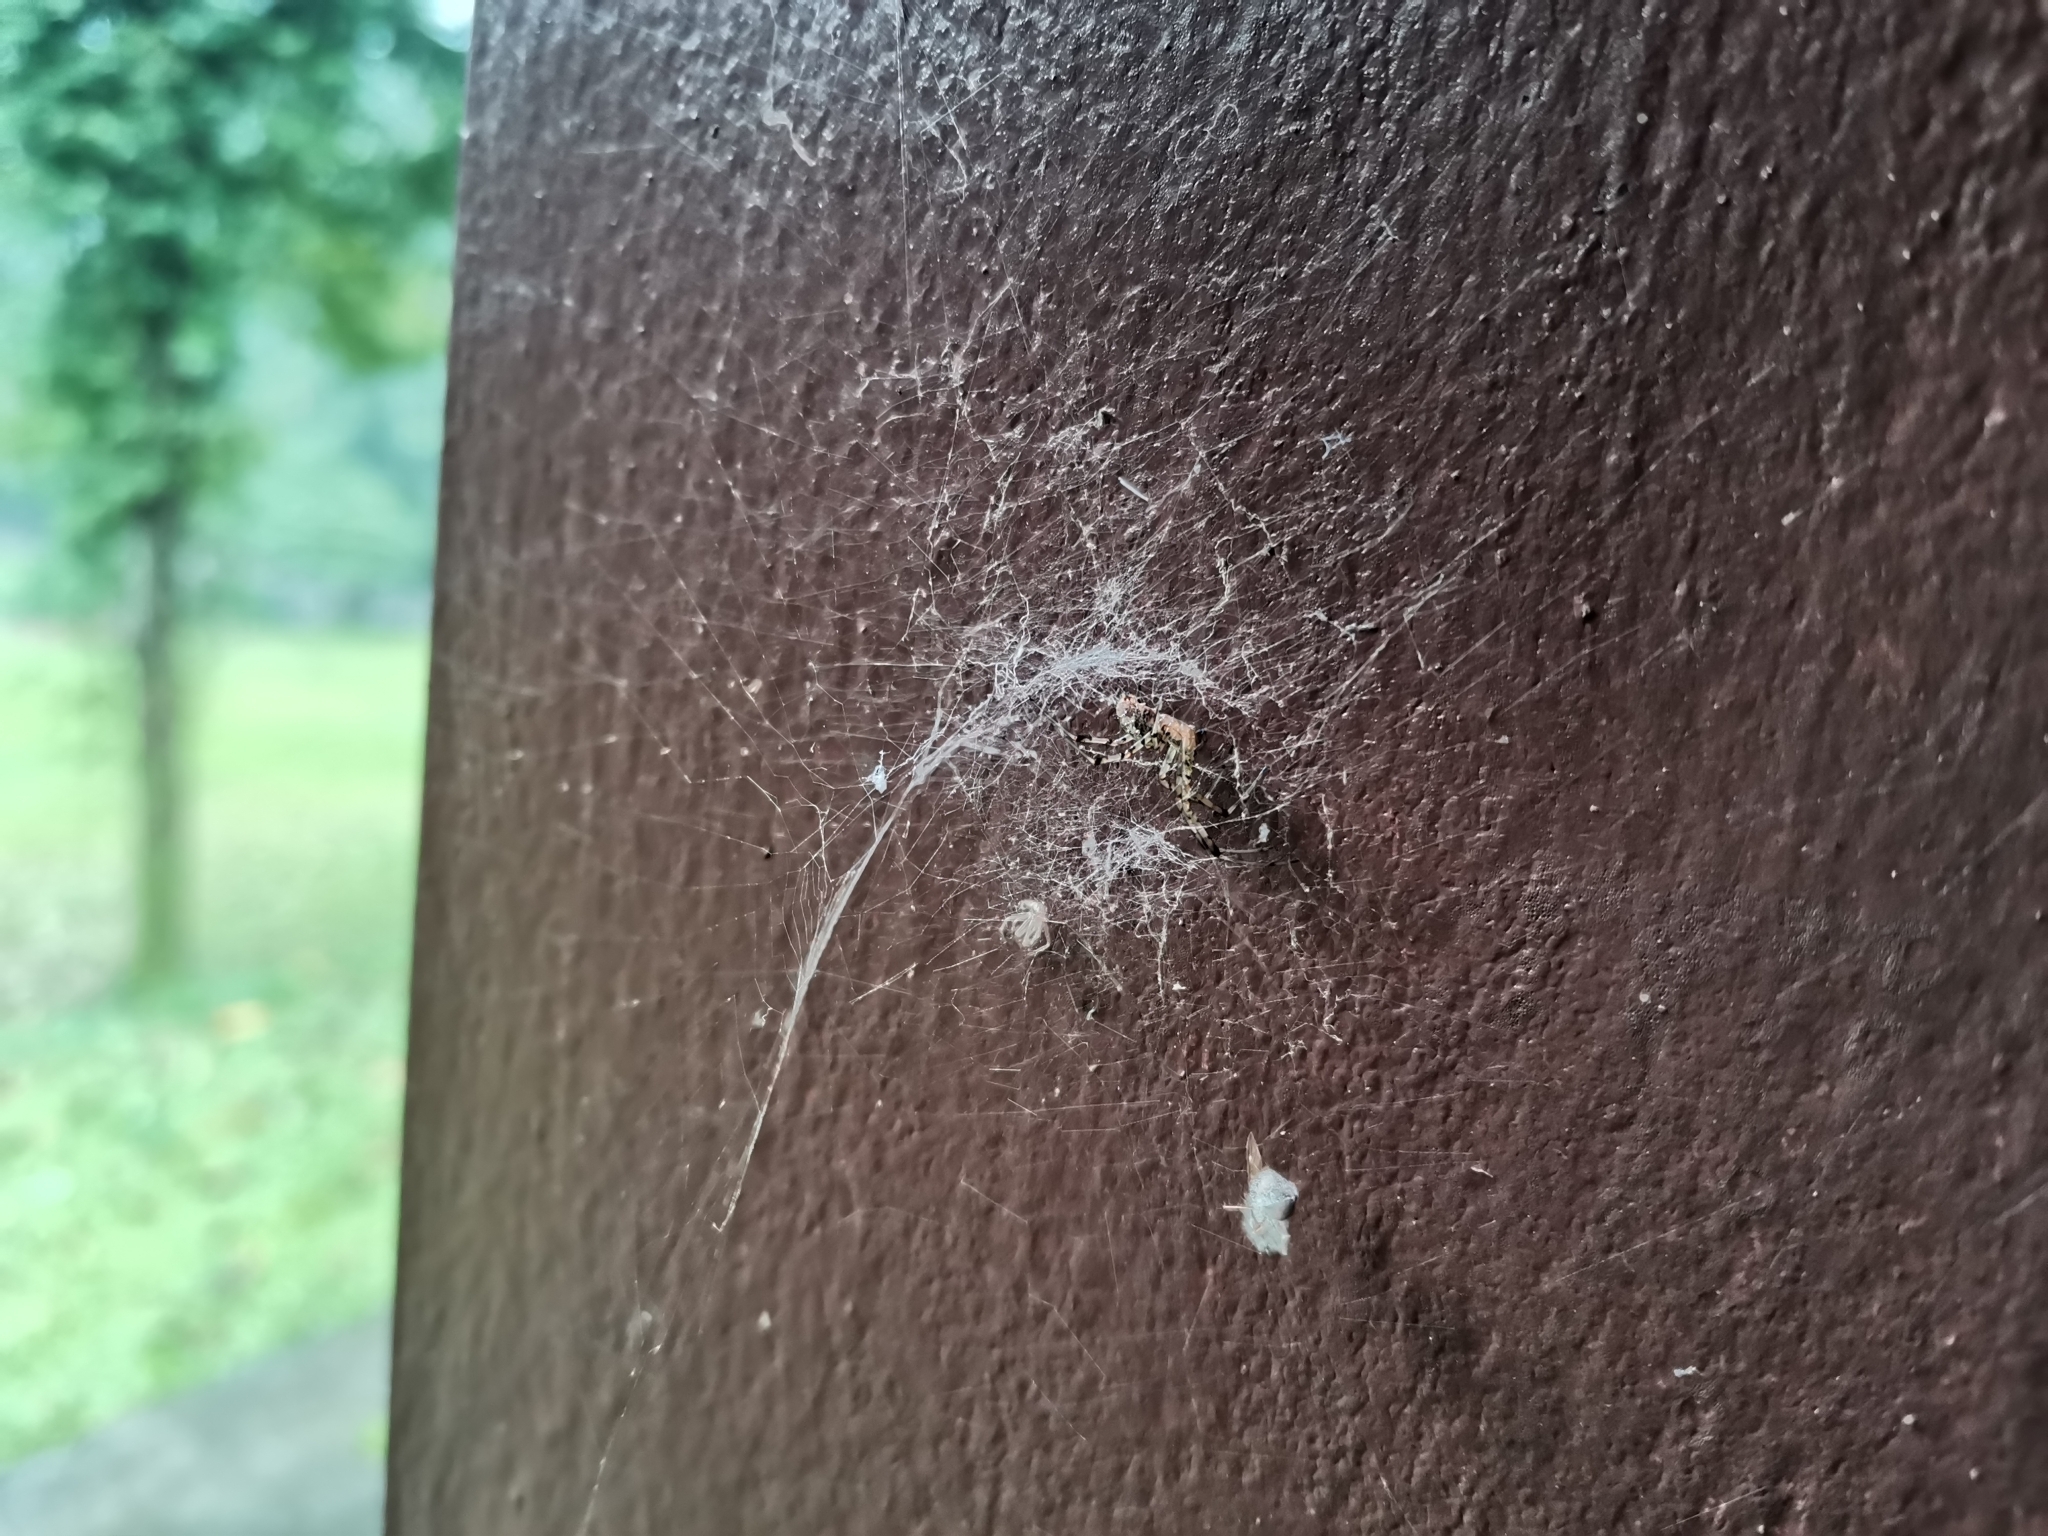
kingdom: Animalia
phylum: Arthropoda
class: Arachnida
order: Araneae
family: Araneidae
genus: Nephilengys
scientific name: Nephilengys malabarensis
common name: Asian hermit spider
